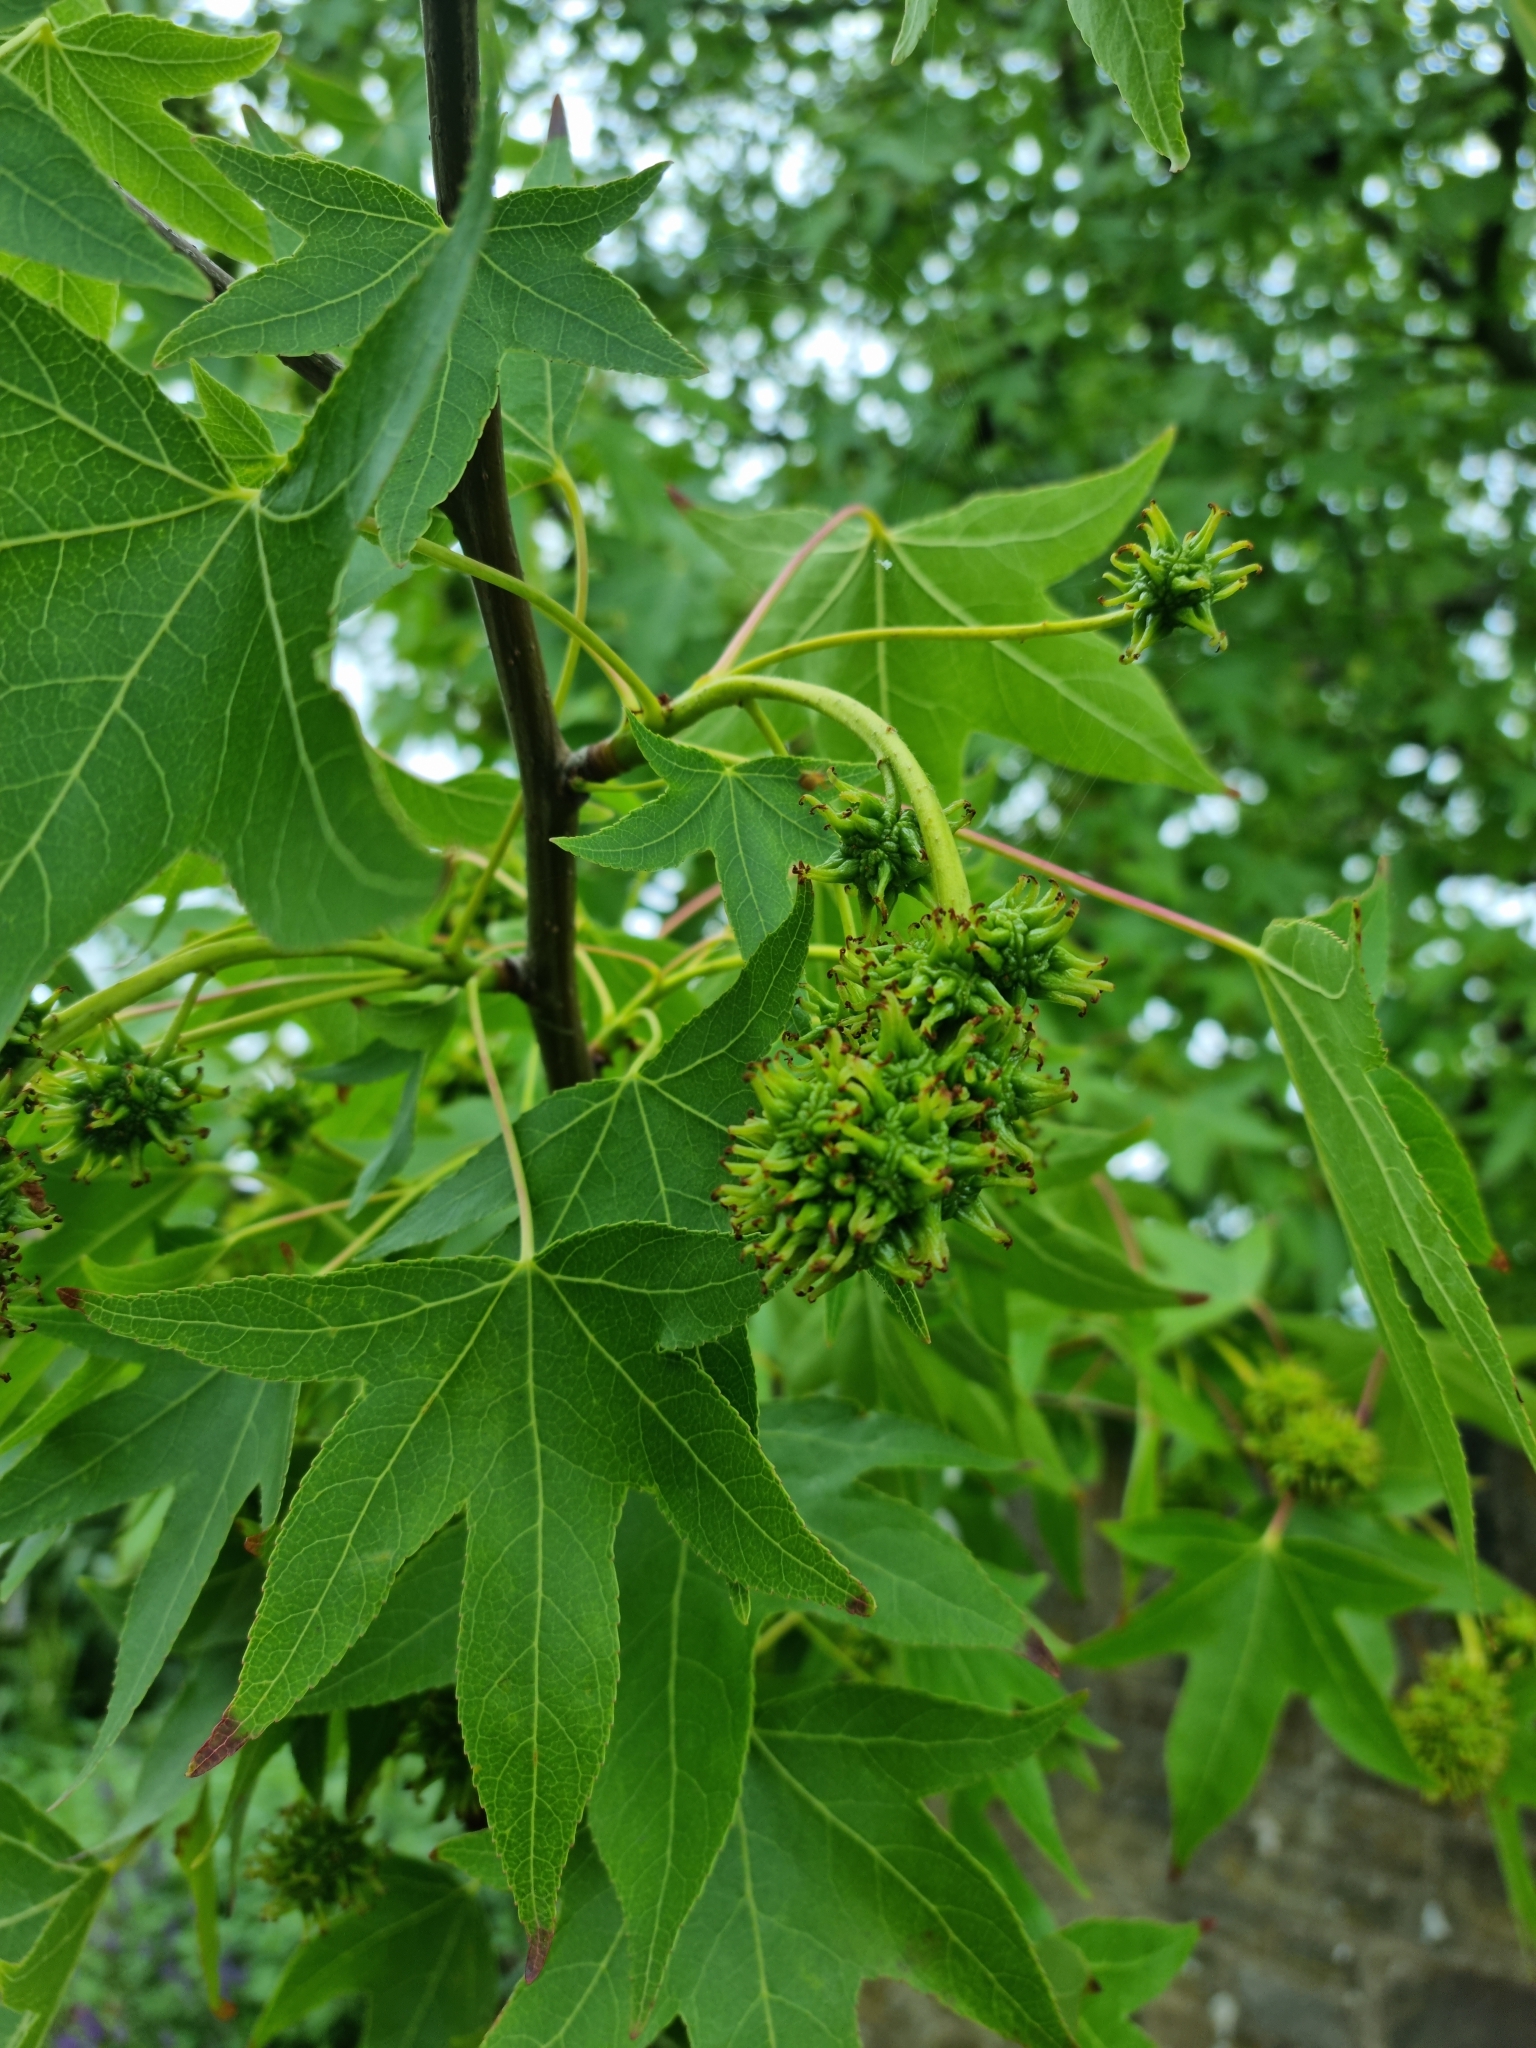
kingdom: Plantae
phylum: Tracheophyta
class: Magnoliopsida
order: Saxifragales
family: Altingiaceae
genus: Liquidambar
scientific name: Liquidambar styraciflua
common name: Sweet gum
